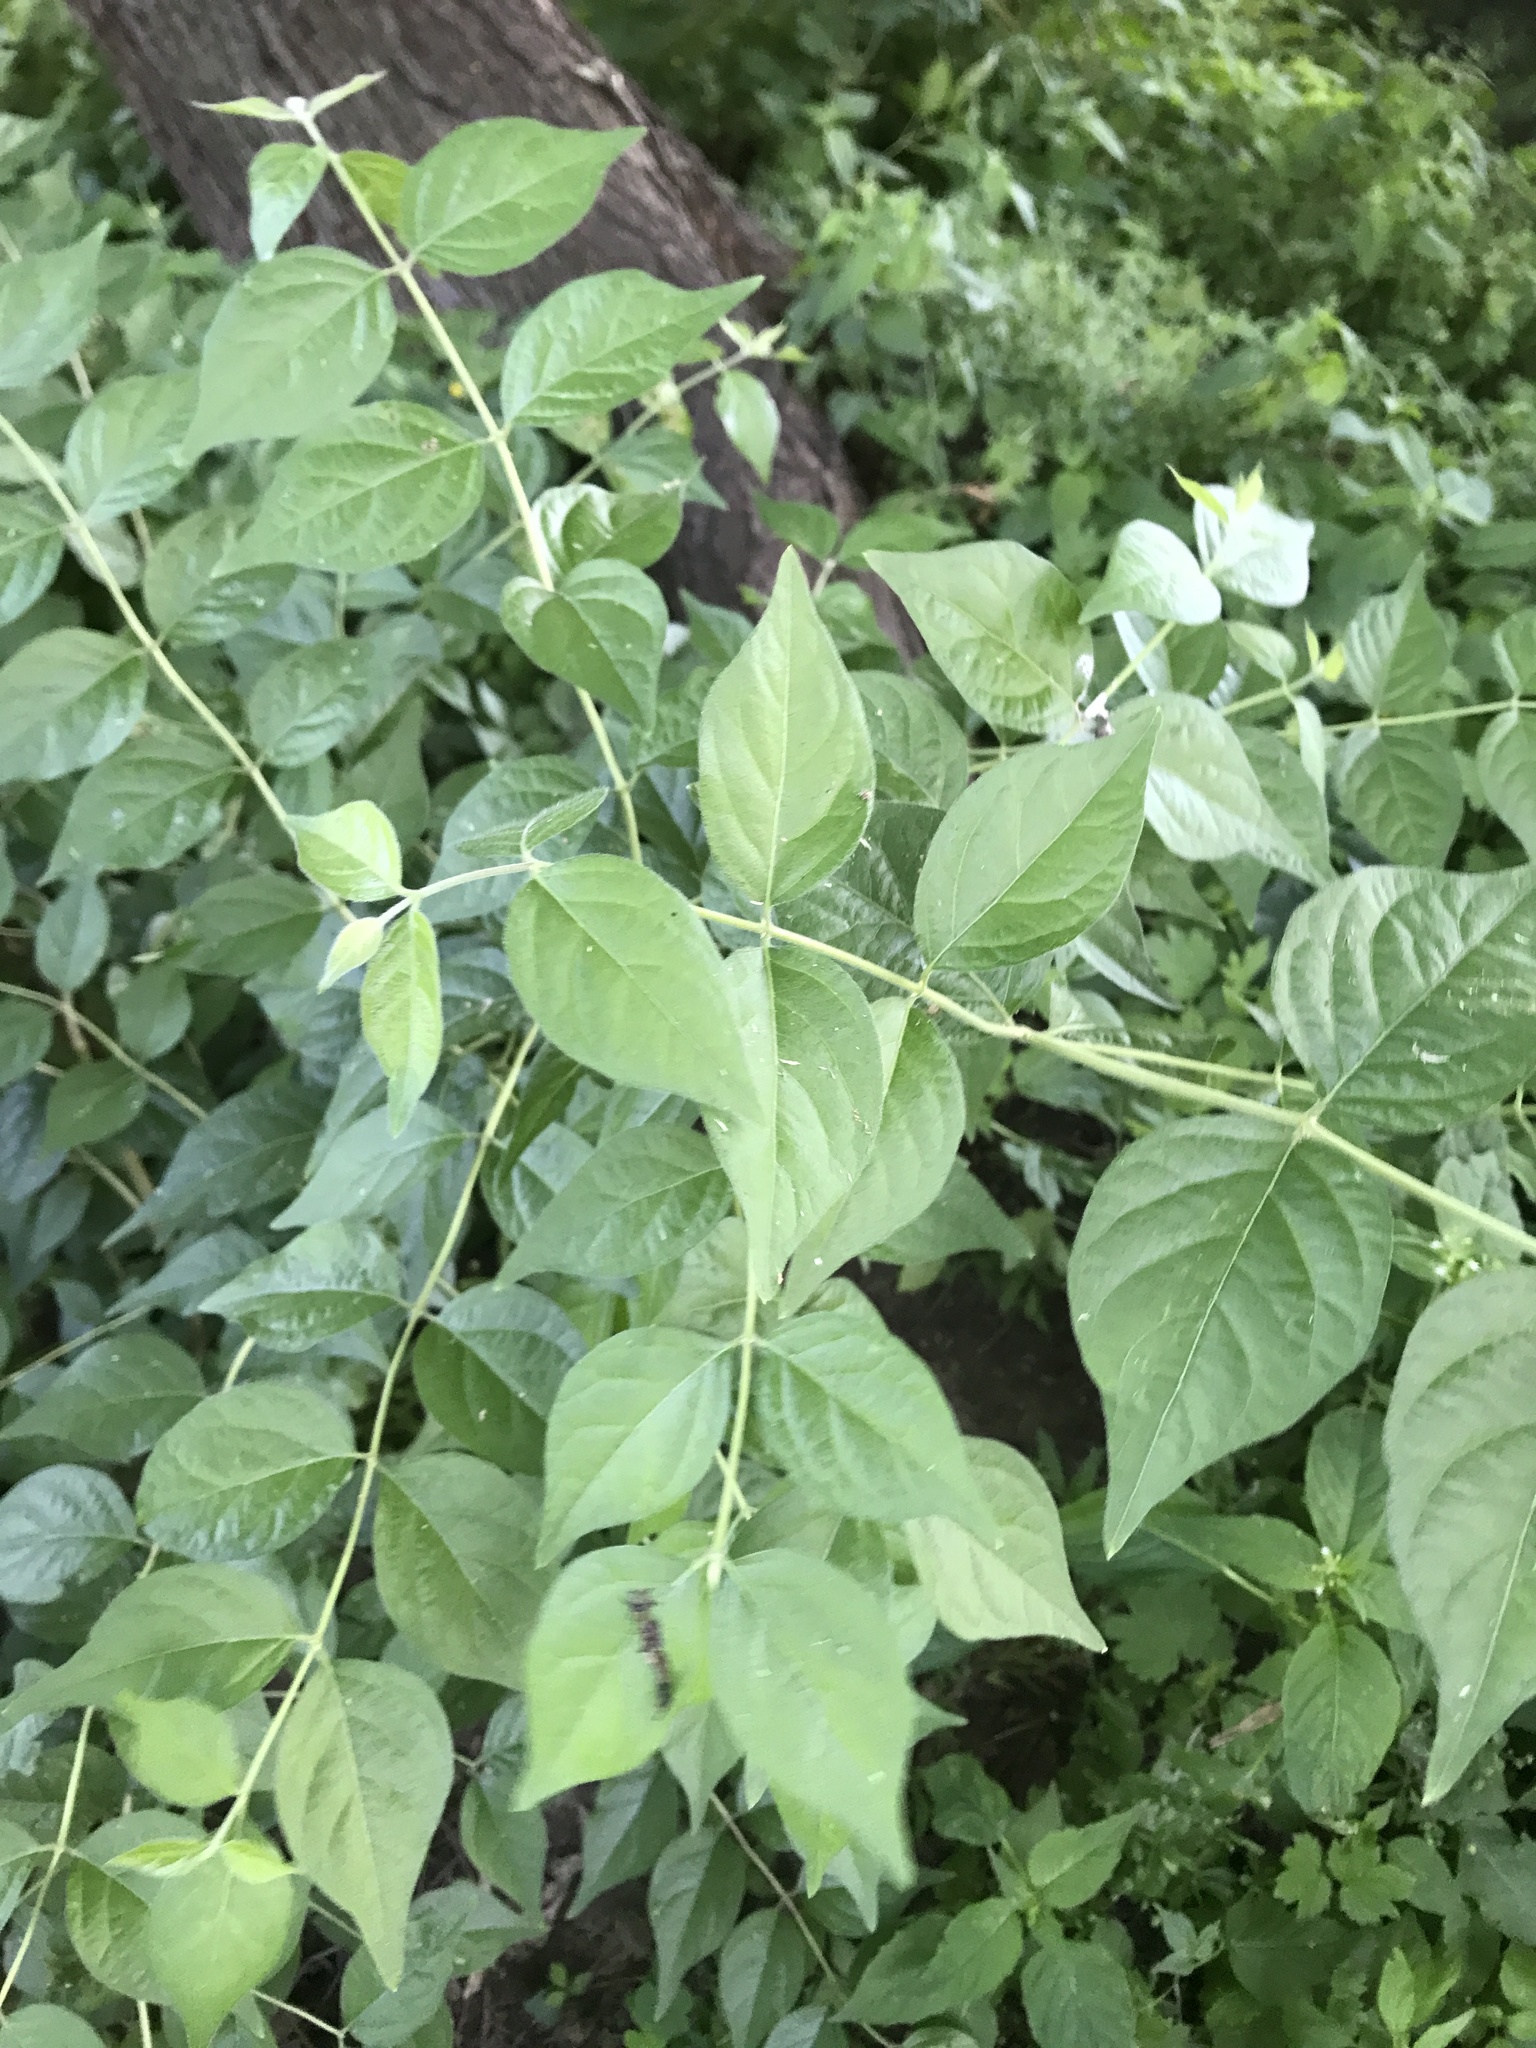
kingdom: Plantae
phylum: Tracheophyta
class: Magnoliopsida
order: Dipsacales
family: Caprifoliaceae
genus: Lonicera
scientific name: Lonicera maackii
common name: Amur honeysuckle
